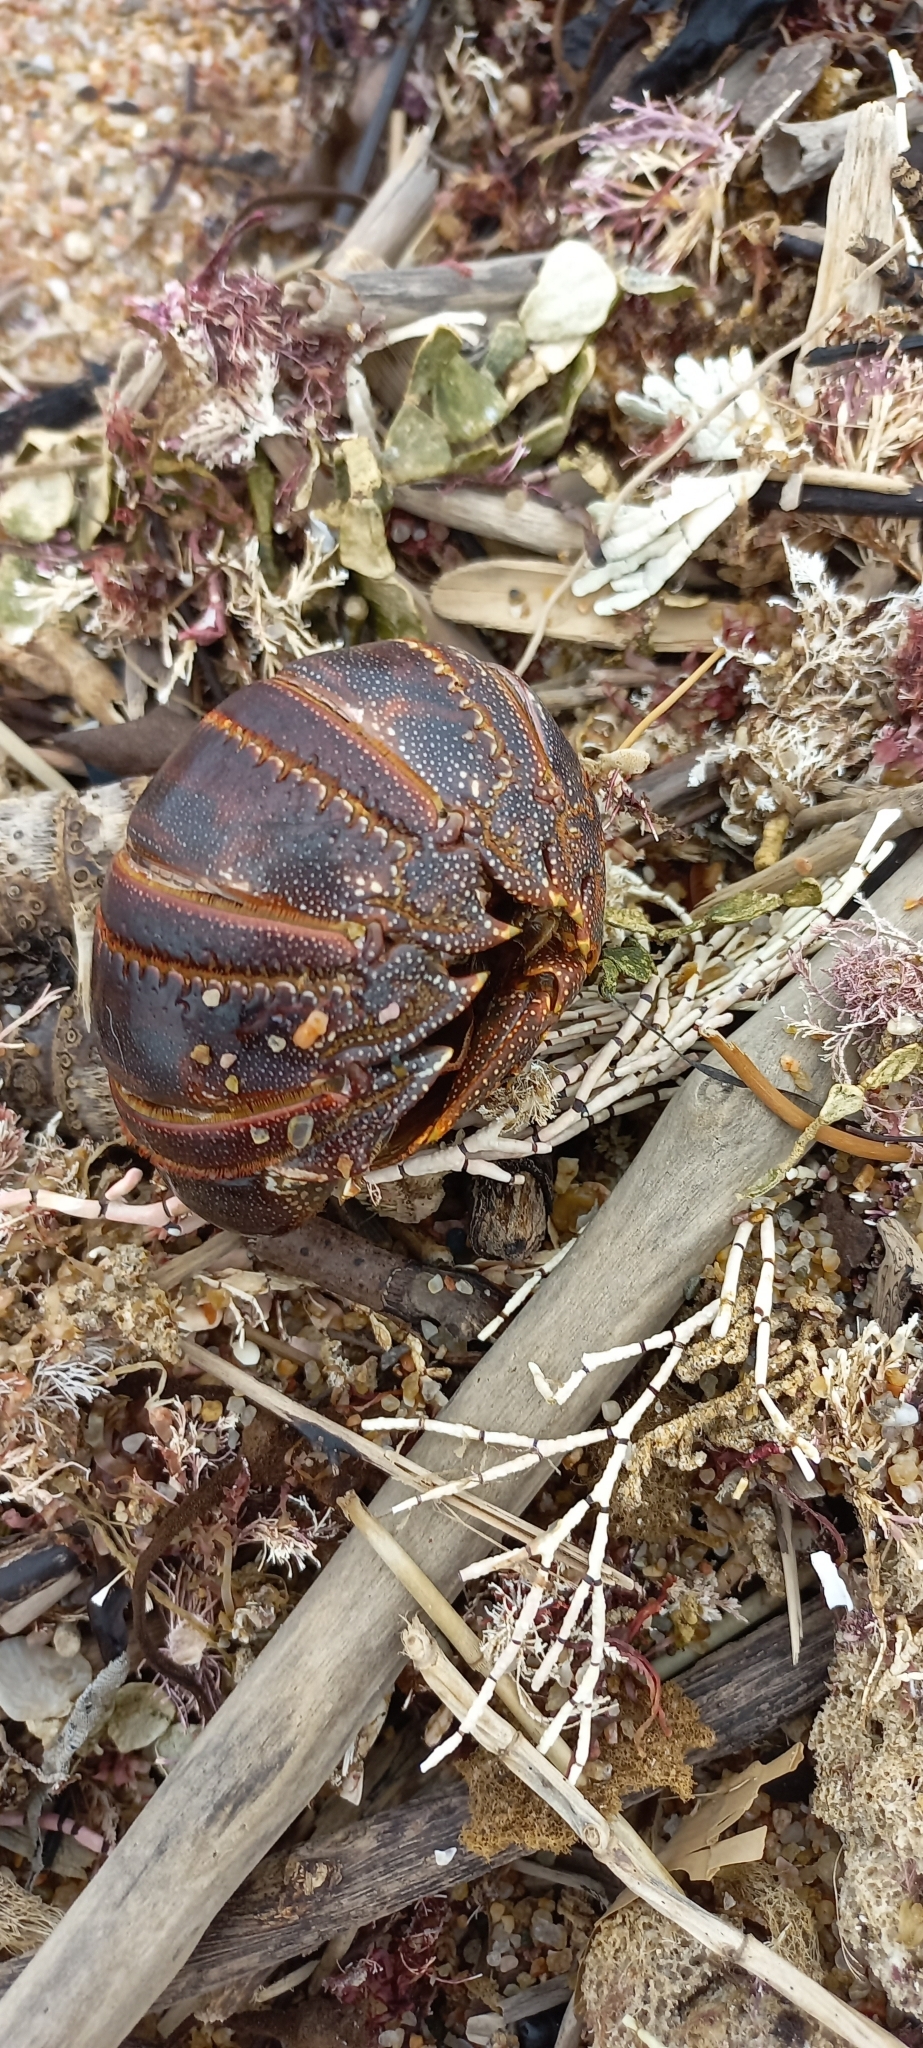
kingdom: Animalia
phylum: Arthropoda
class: Malacostraca
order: Decapoda
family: Palinuridae
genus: Panulirus
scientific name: Panulirus homarus
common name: Scalloped spiny lobster
